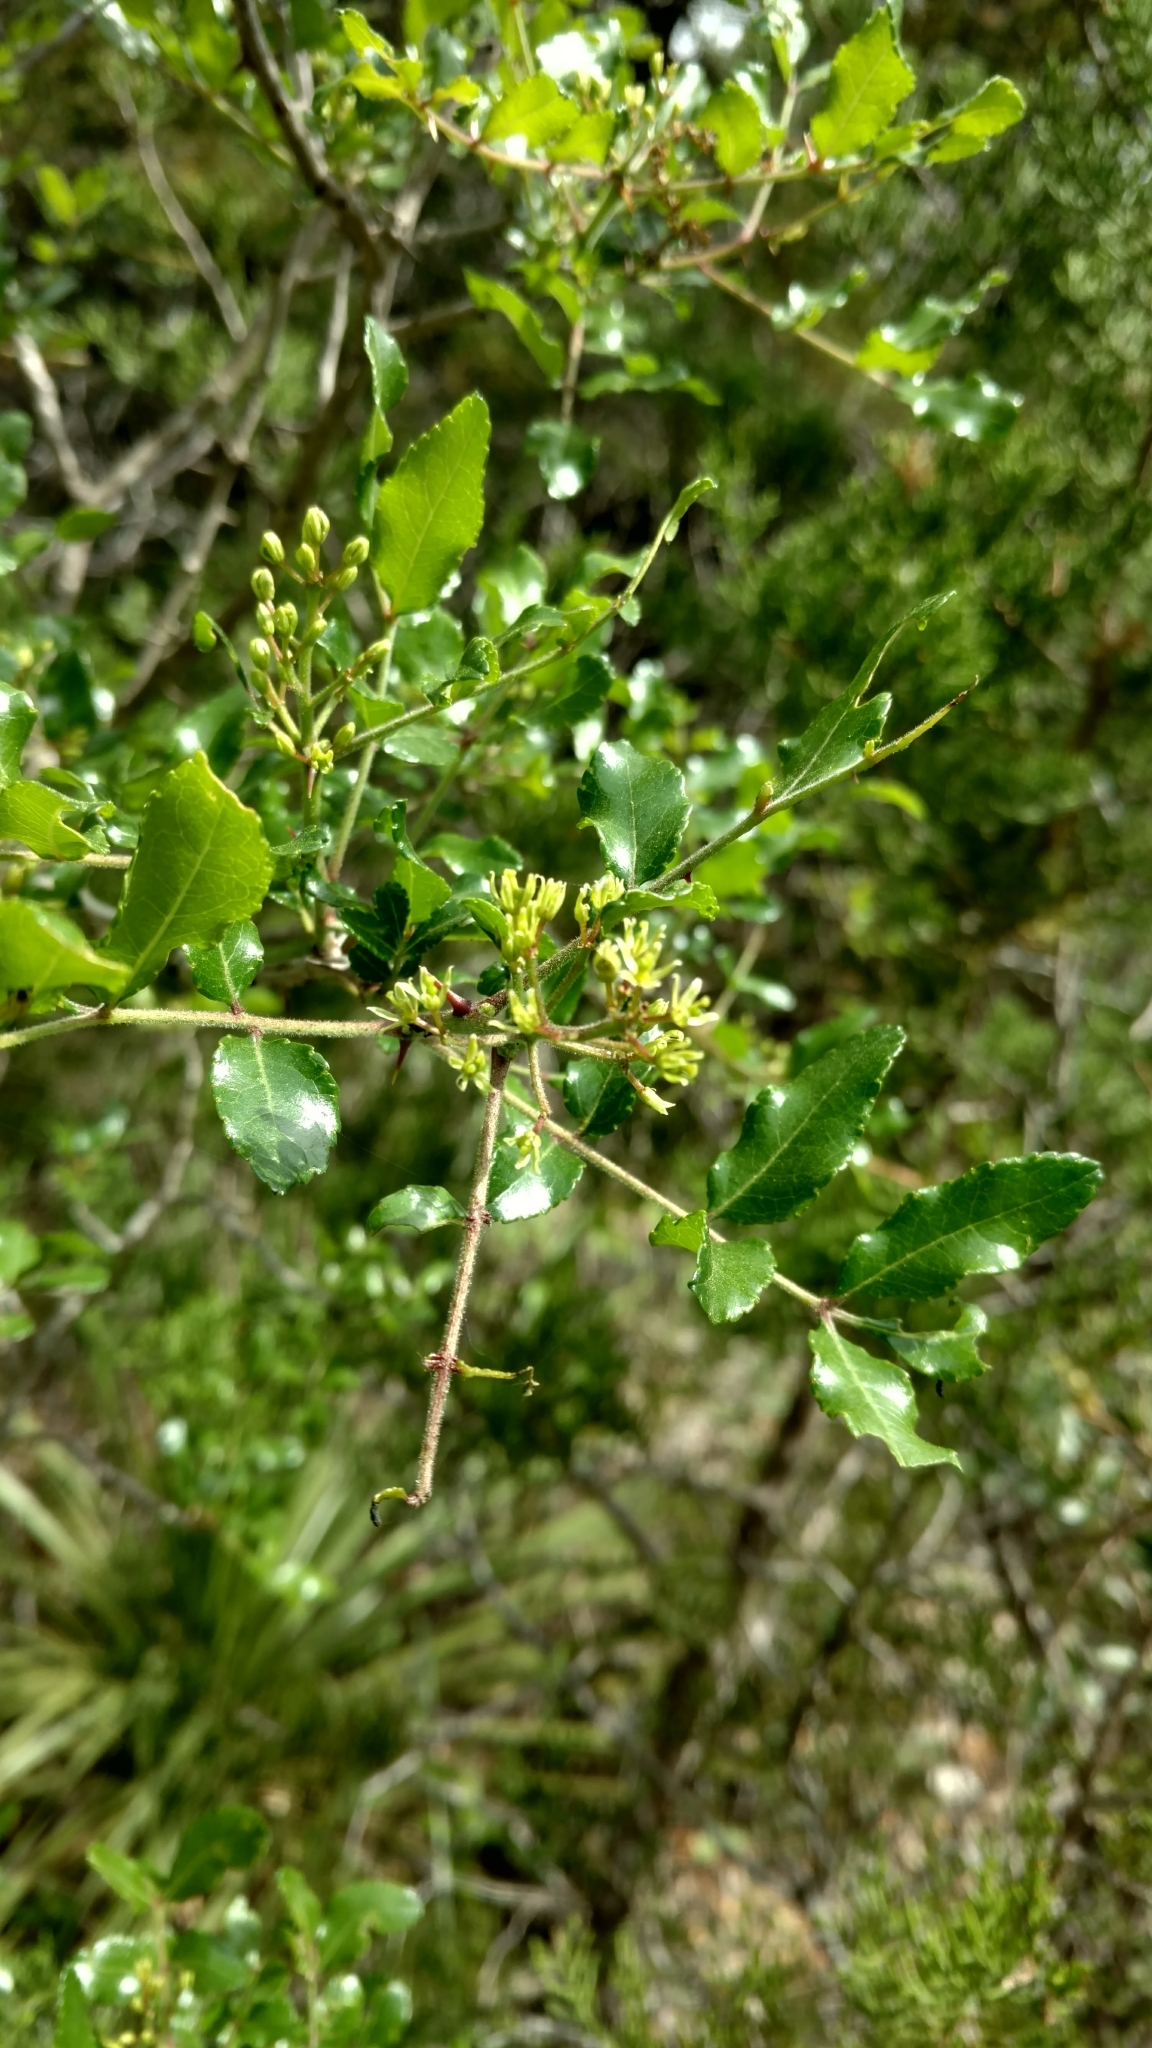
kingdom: Plantae
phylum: Tracheophyta
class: Magnoliopsida
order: Sapindales
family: Rutaceae
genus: Zanthoxylum
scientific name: Zanthoxylum clava-herculis
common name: Hercules'-club
